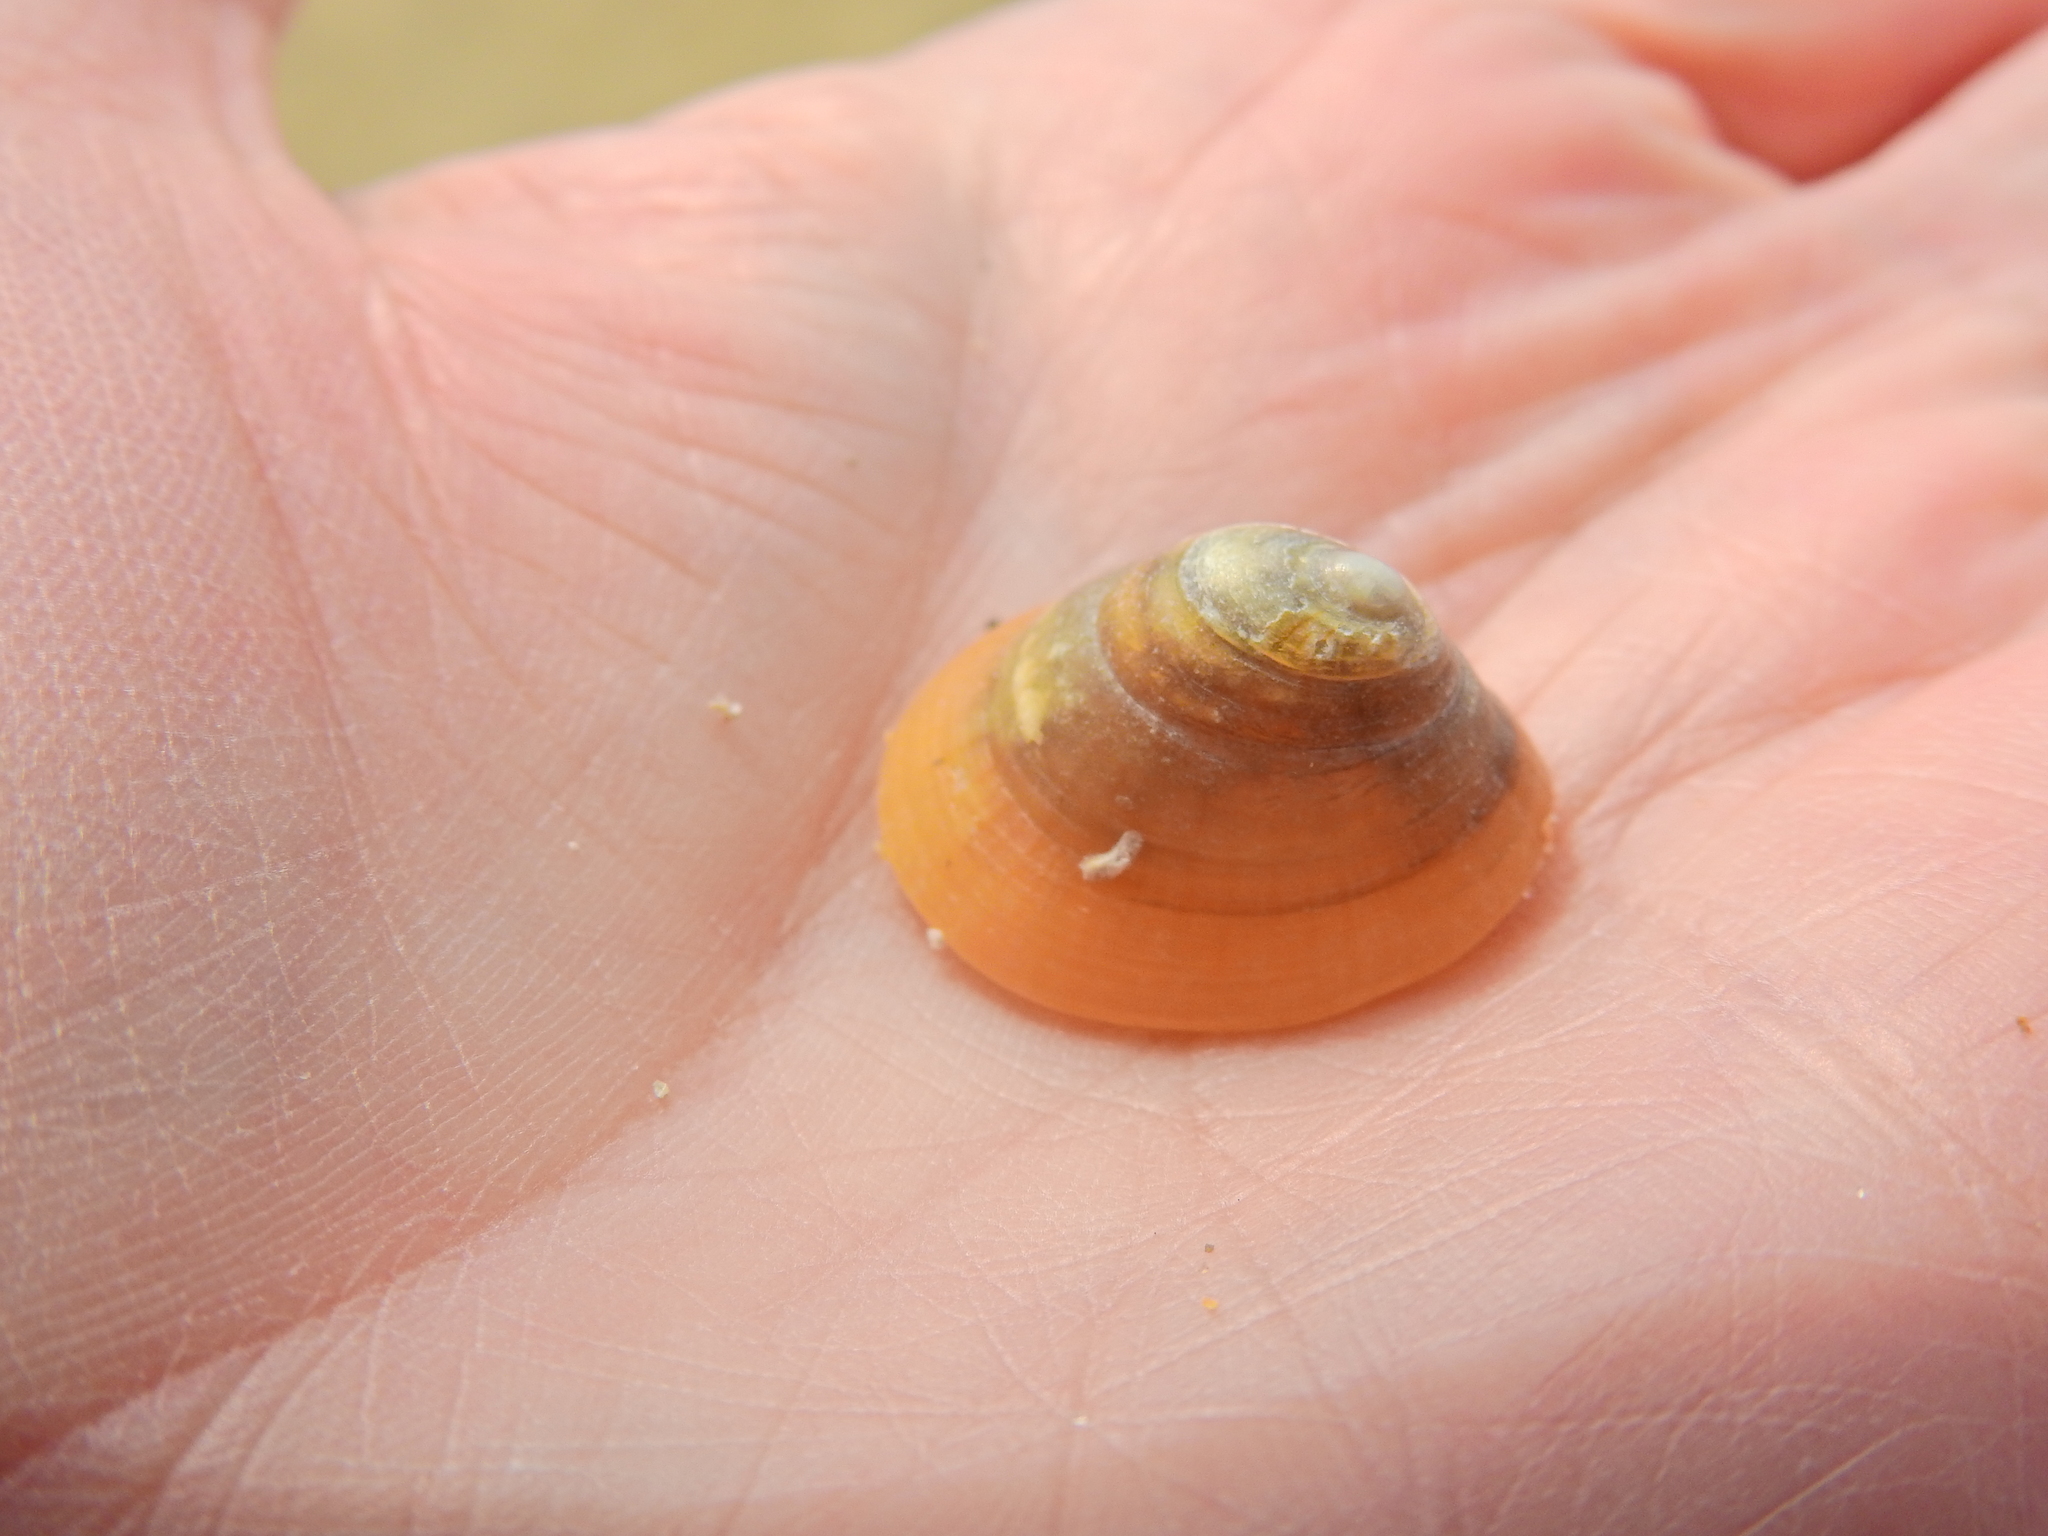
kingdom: Animalia
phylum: Mollusca
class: Gastropoda
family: Patellidae
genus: Patella
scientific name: Patella pellucida
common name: Blue-rayed limpet
